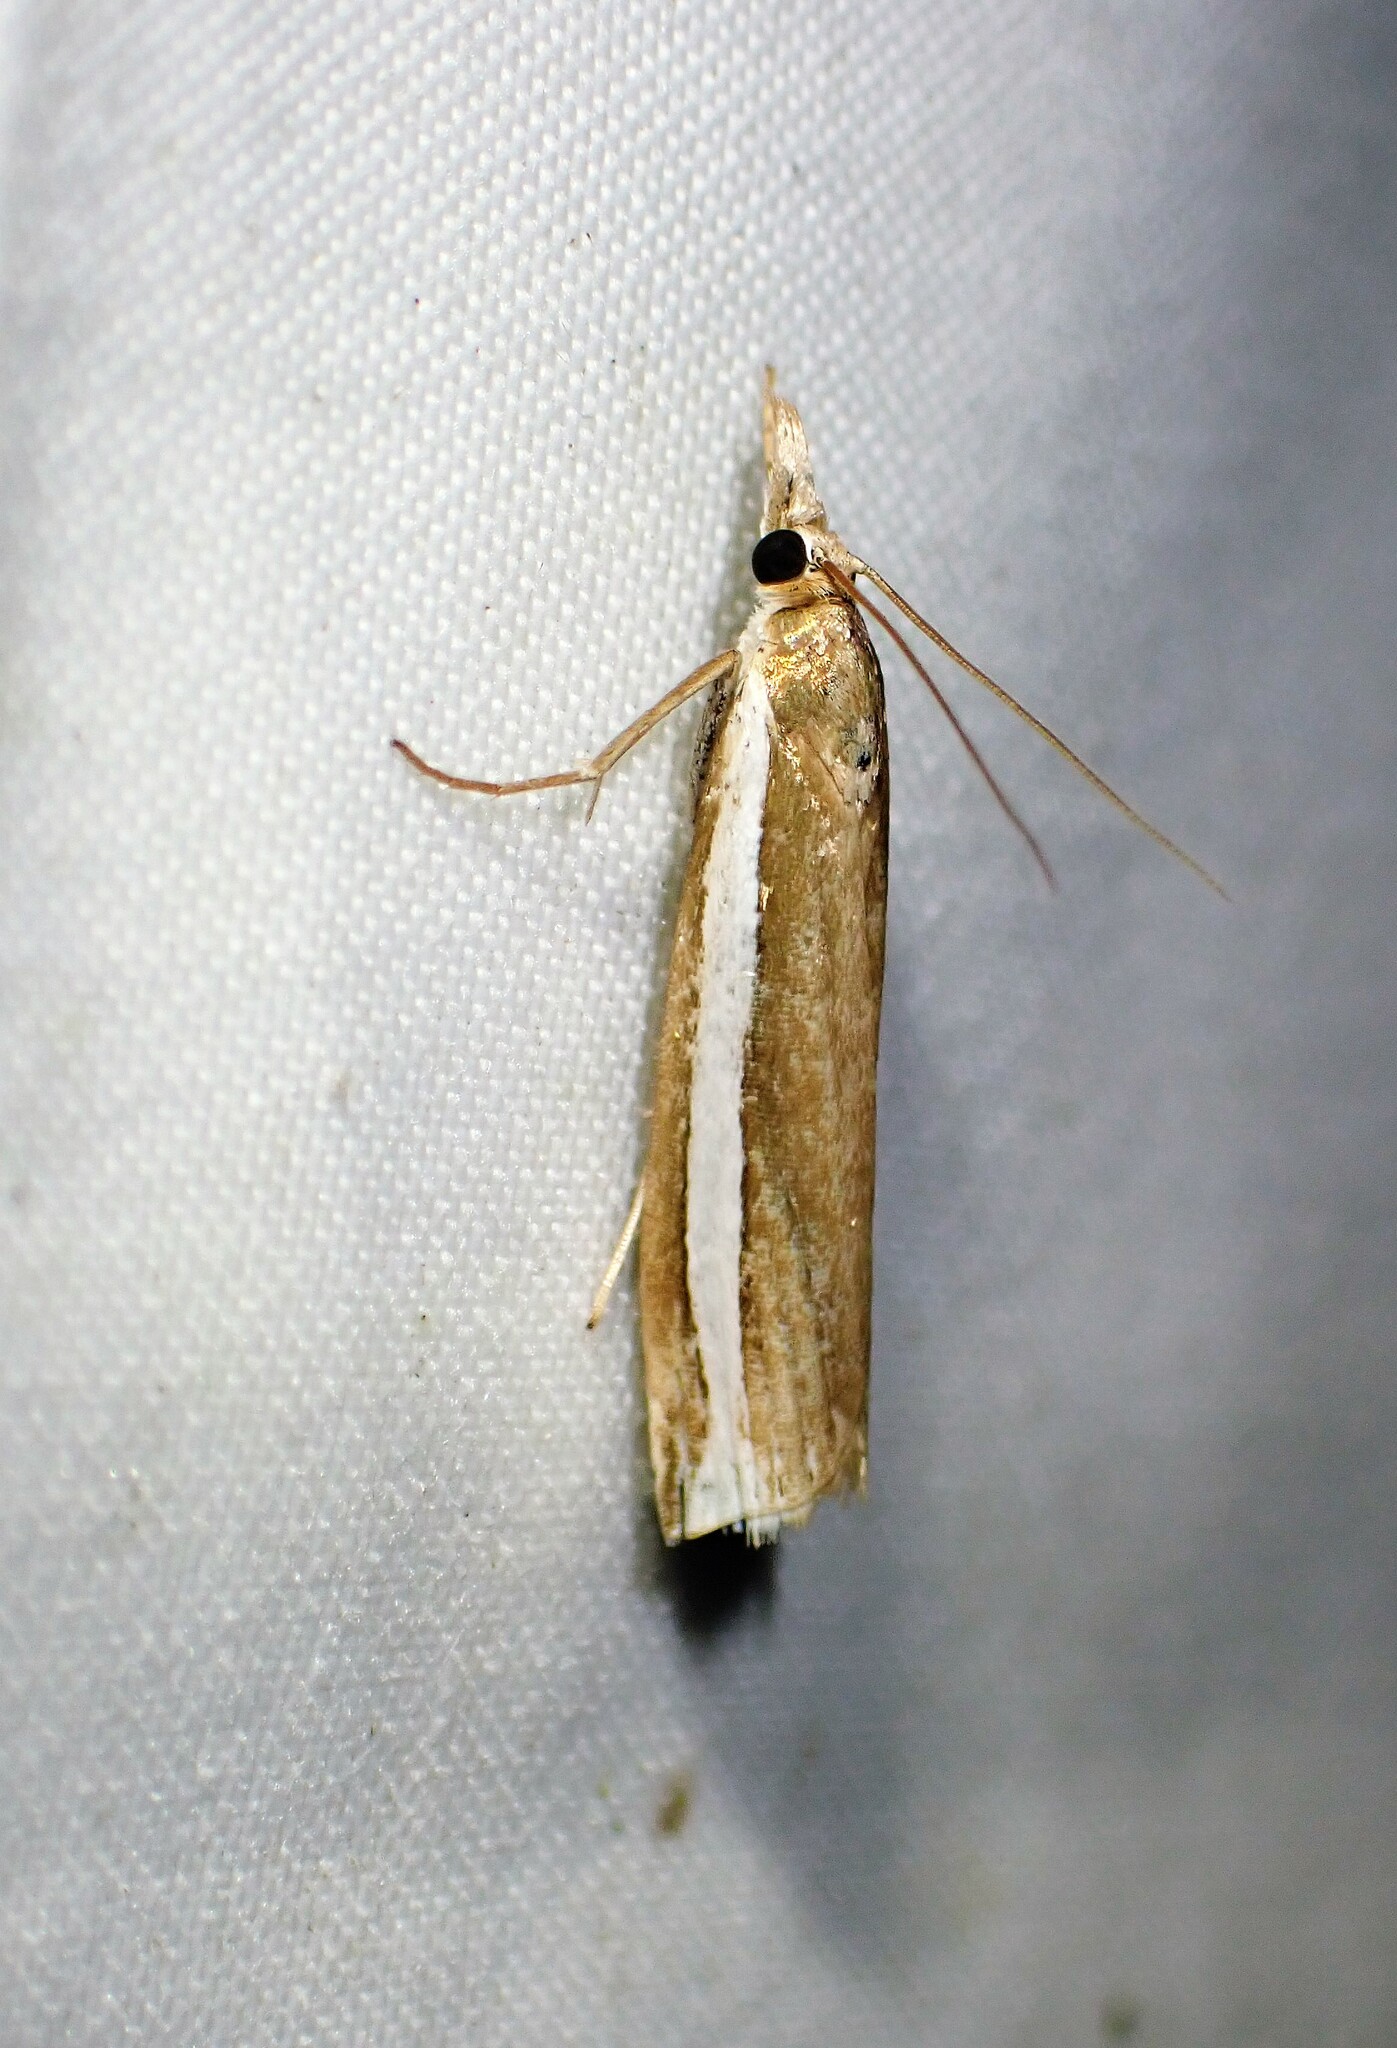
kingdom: Animalia
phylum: Arthropoda
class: Insecta
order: Lepidoptera
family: Crambidae
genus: Crambus
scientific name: Crambus unistriatellus
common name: Wide-stripe grass-veneer moth
